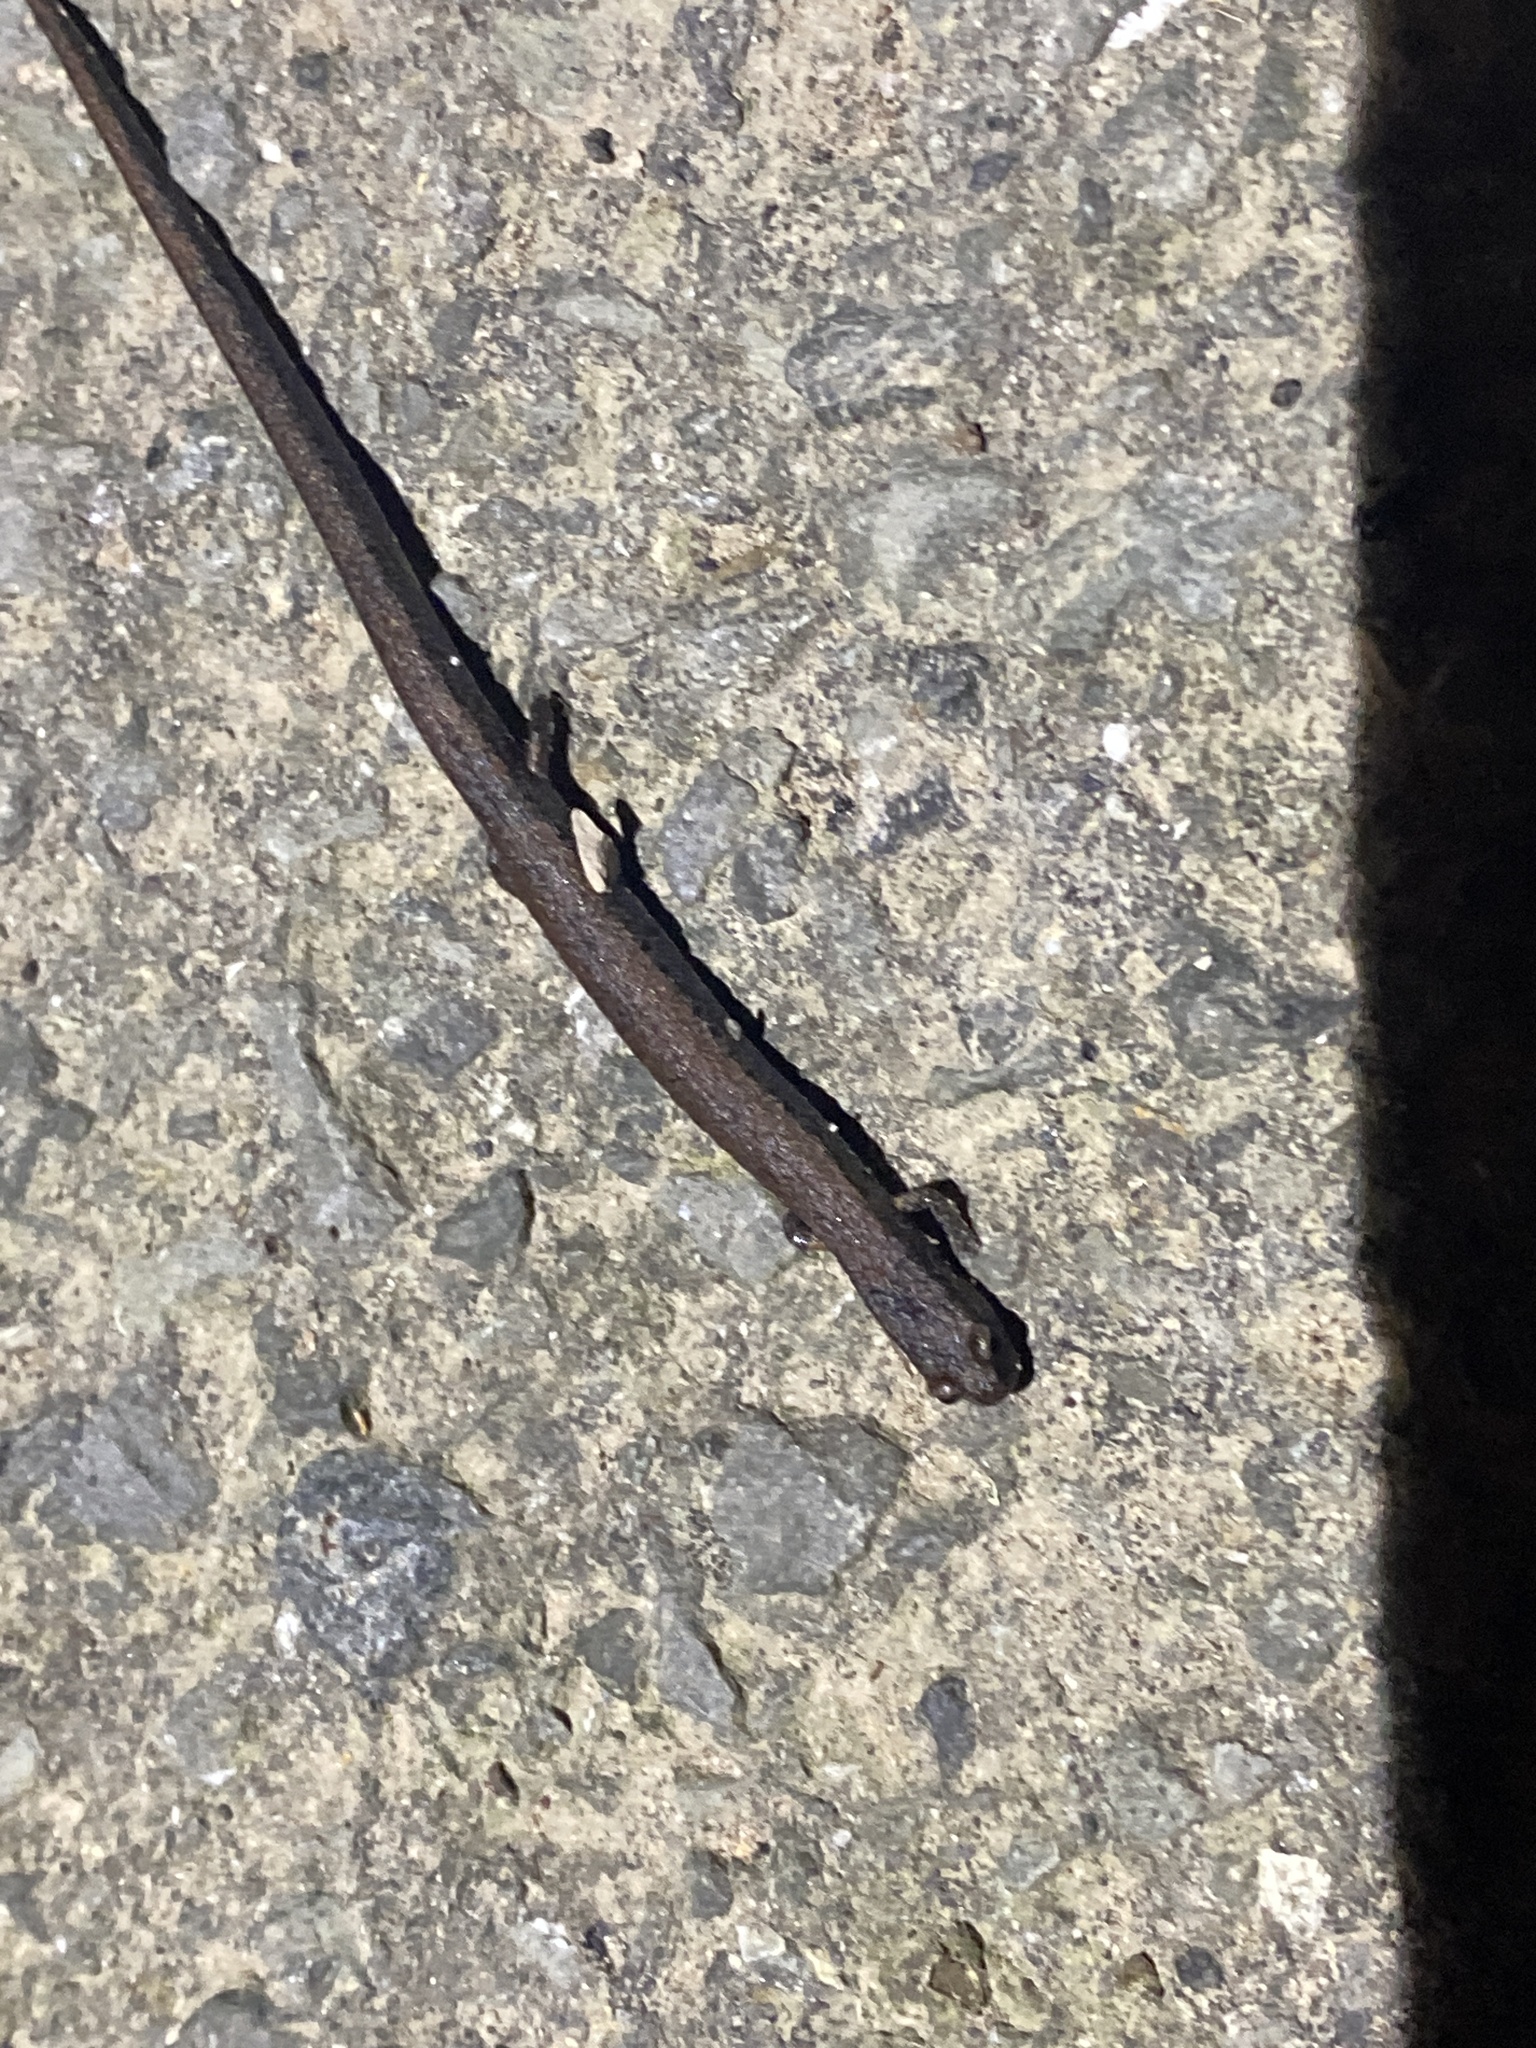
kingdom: Animalia
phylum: Chordata
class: Amphibia
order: Caudata
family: Plethodontidae
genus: Batrachoseps
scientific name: Batrachoseps attenuatus
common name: California slender salamander
